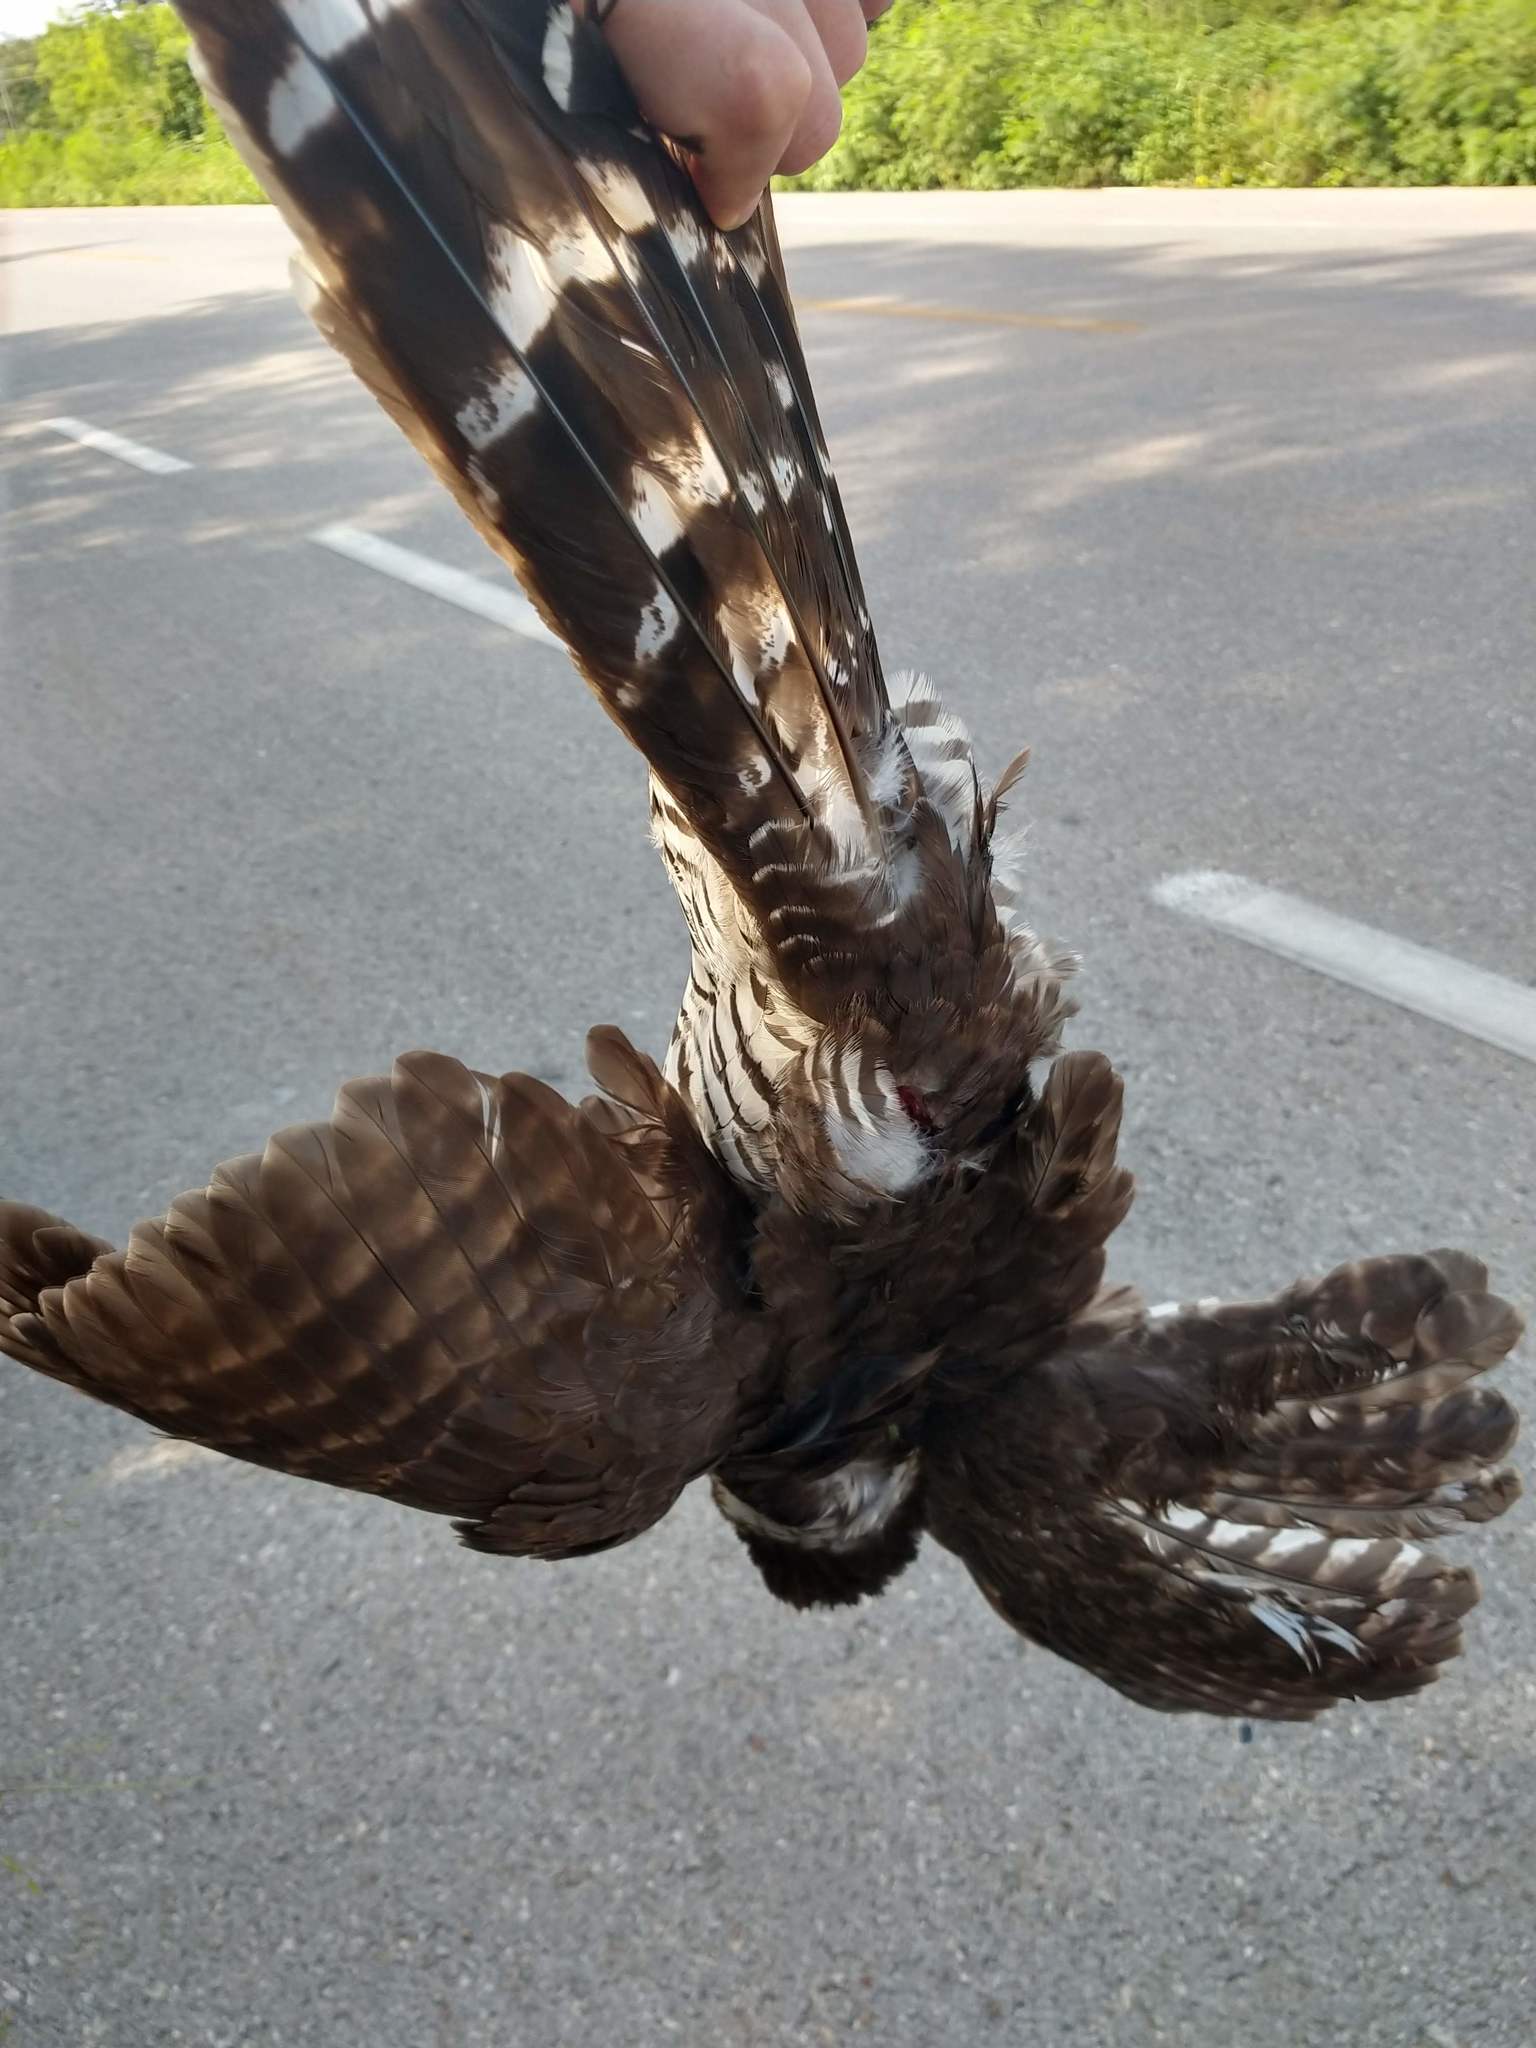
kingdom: Animalia
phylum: Chordata
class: Aves
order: Falconiformes
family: Falconidae
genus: Micrastur
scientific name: Micrastur semitorquatus
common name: Collared forest-falcon
